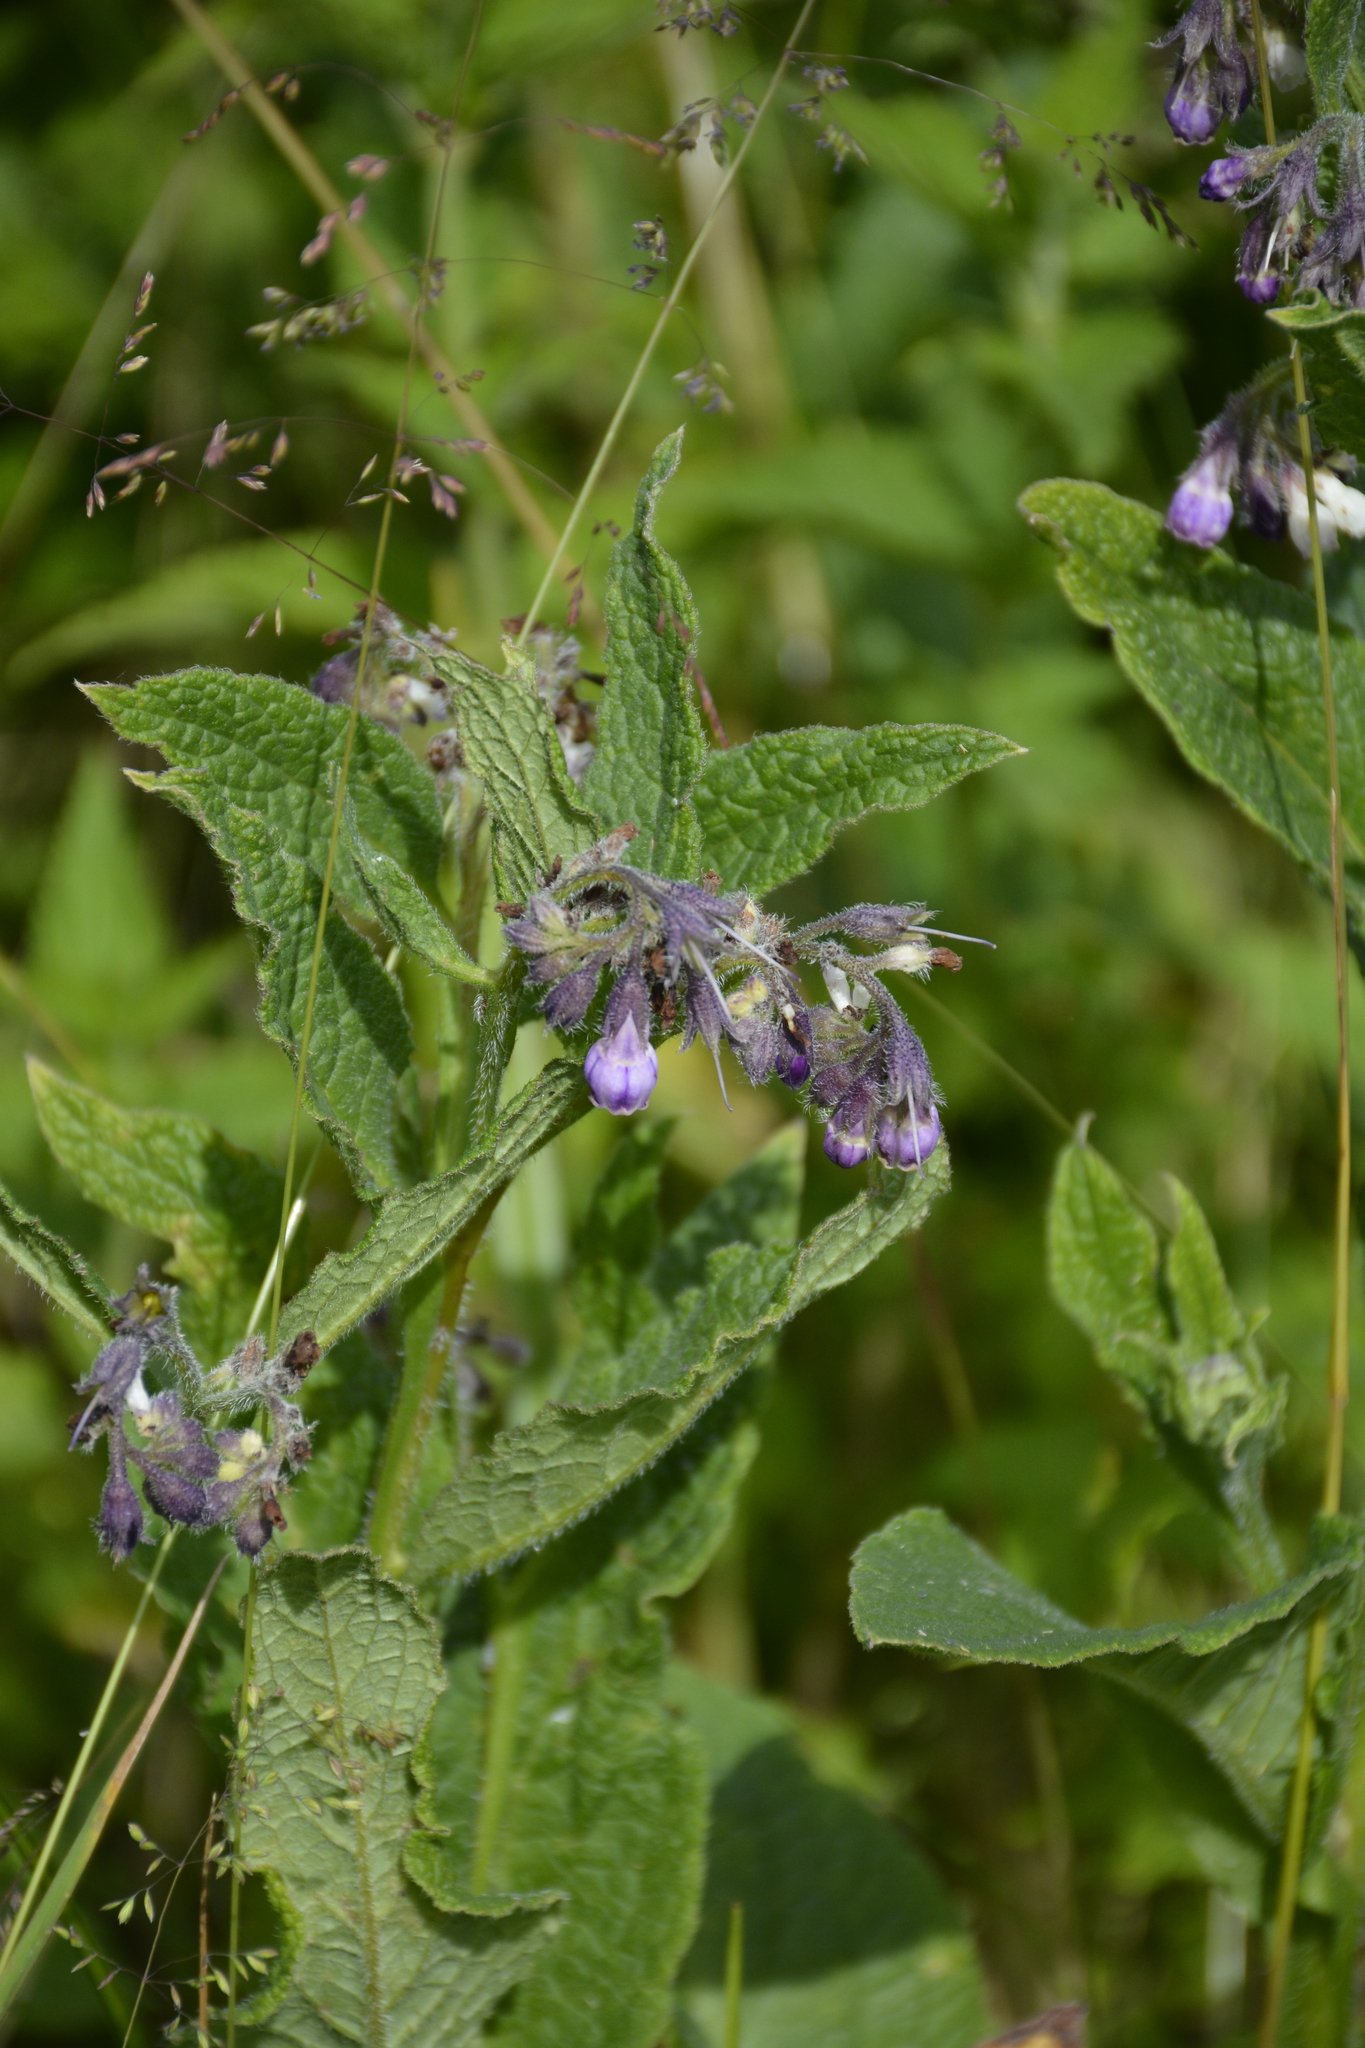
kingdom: Plantae
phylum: Tracheophyta
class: Magnoliopsida
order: Boraginales
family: Boraginaceae
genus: Symphytum
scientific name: Symphytum officinale
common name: Common comfrey
